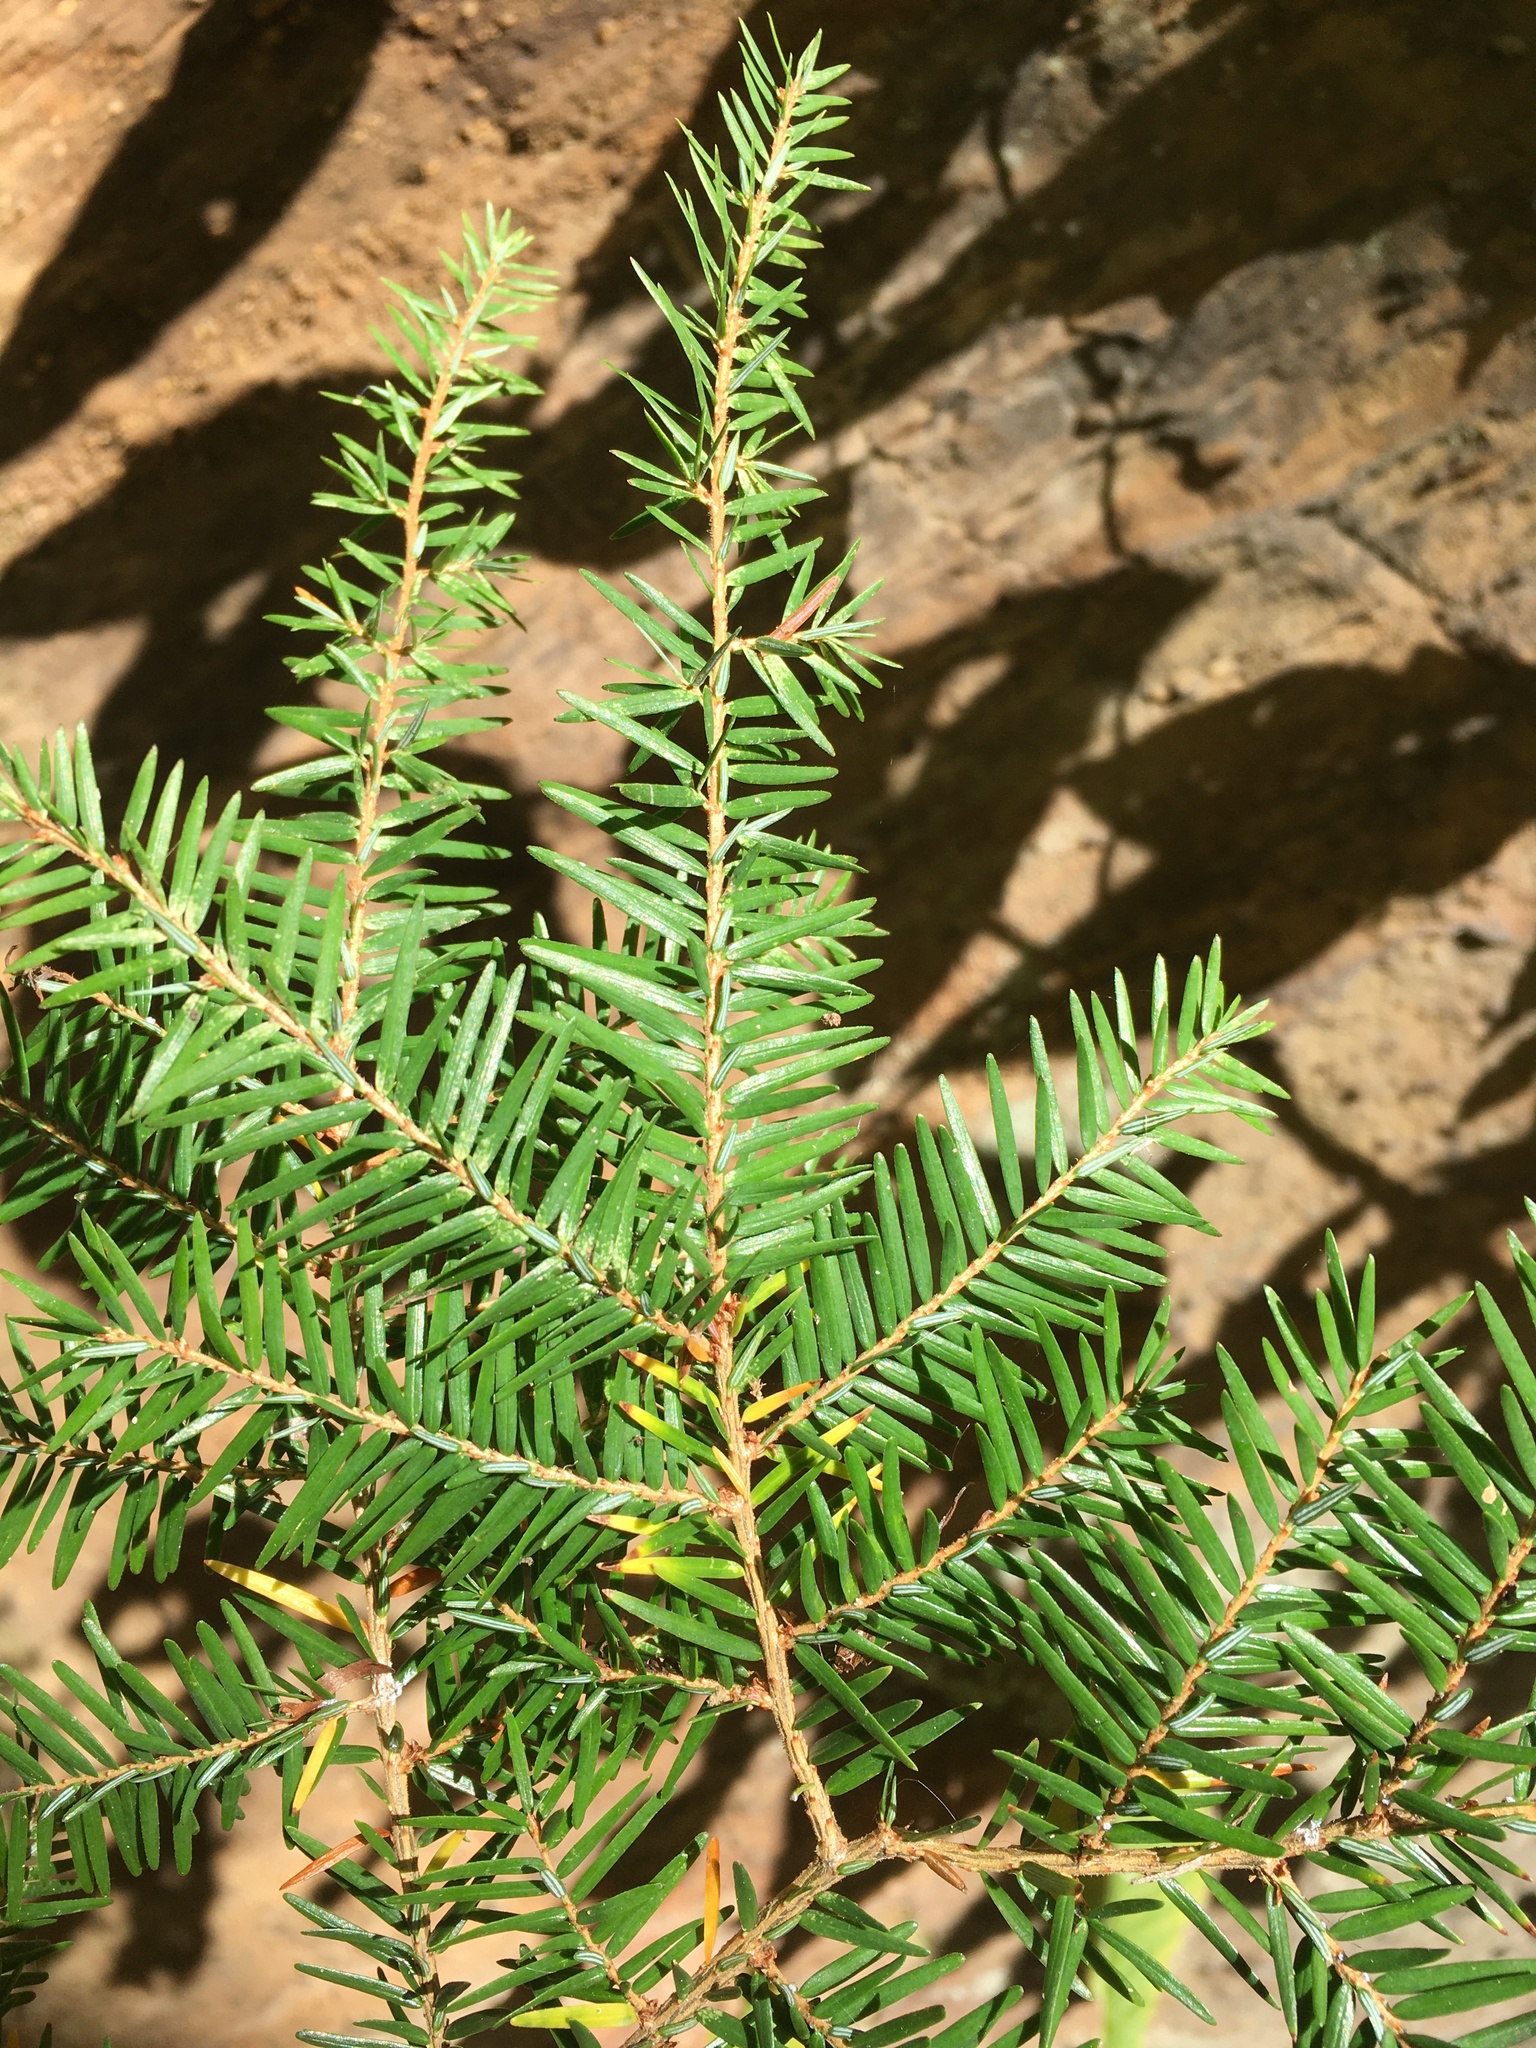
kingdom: Plantae
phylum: Tracheophyta
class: Pinopsida
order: Pinales
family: Pinaceae
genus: Tsuga
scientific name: Tsuga canadensis
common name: Eastern hemlock
